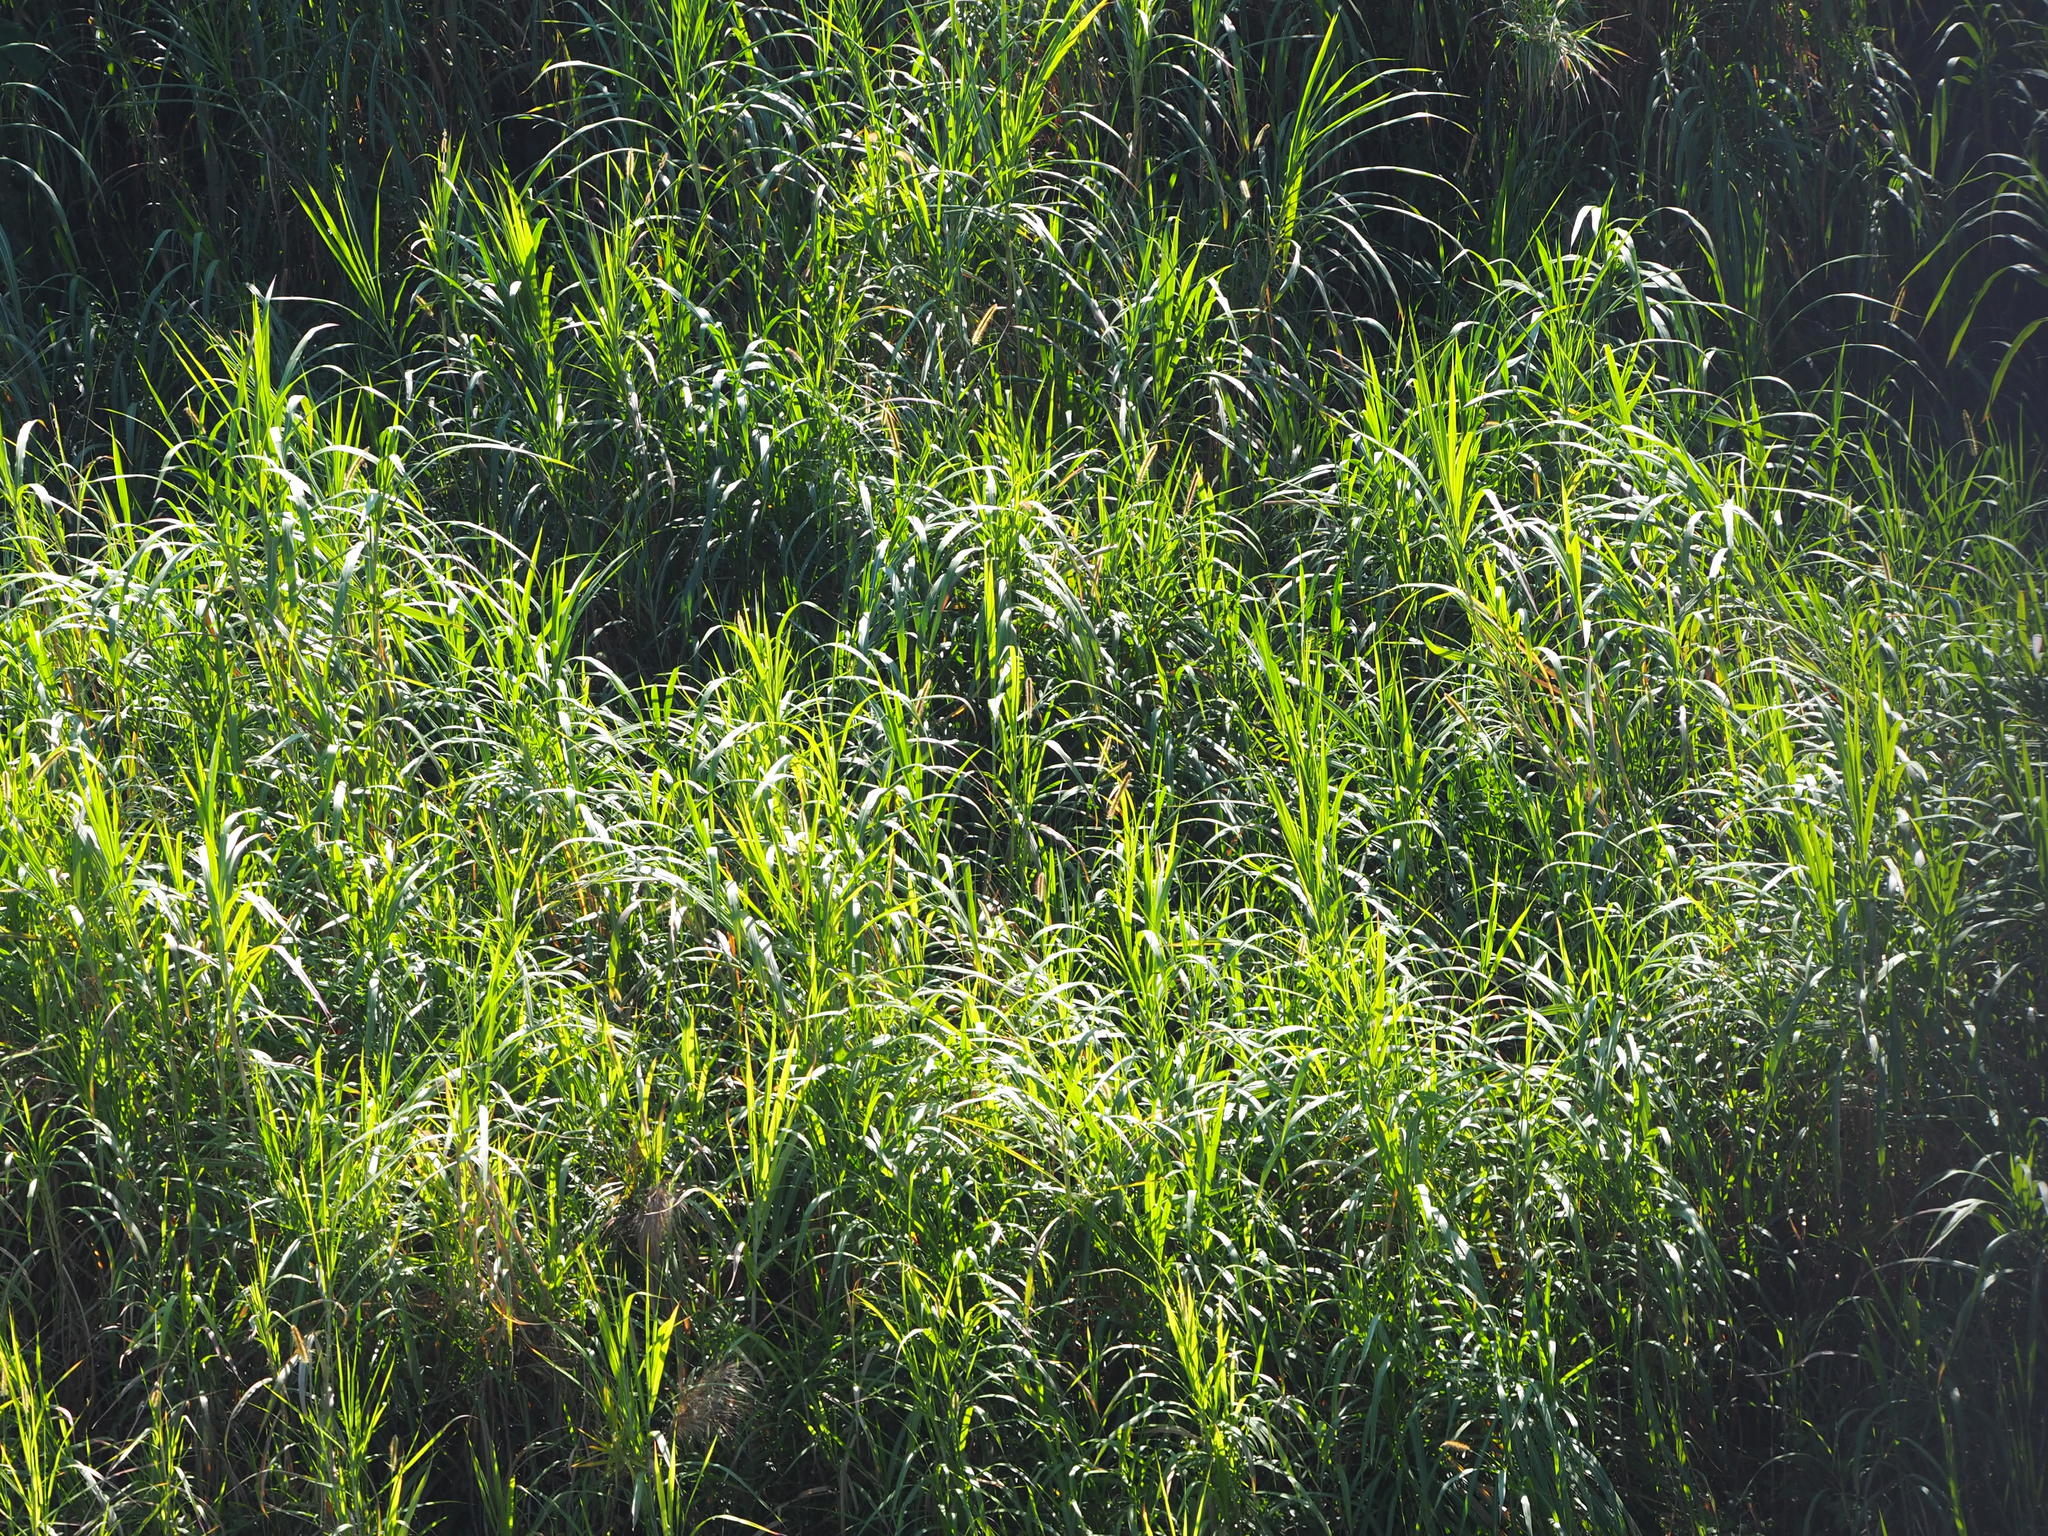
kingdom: Plantae
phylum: Tracheophyta
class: Liliopsida
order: Poales
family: Poaceae
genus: Cenchrus
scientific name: Cenchrus purpureus
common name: Elephant grass
